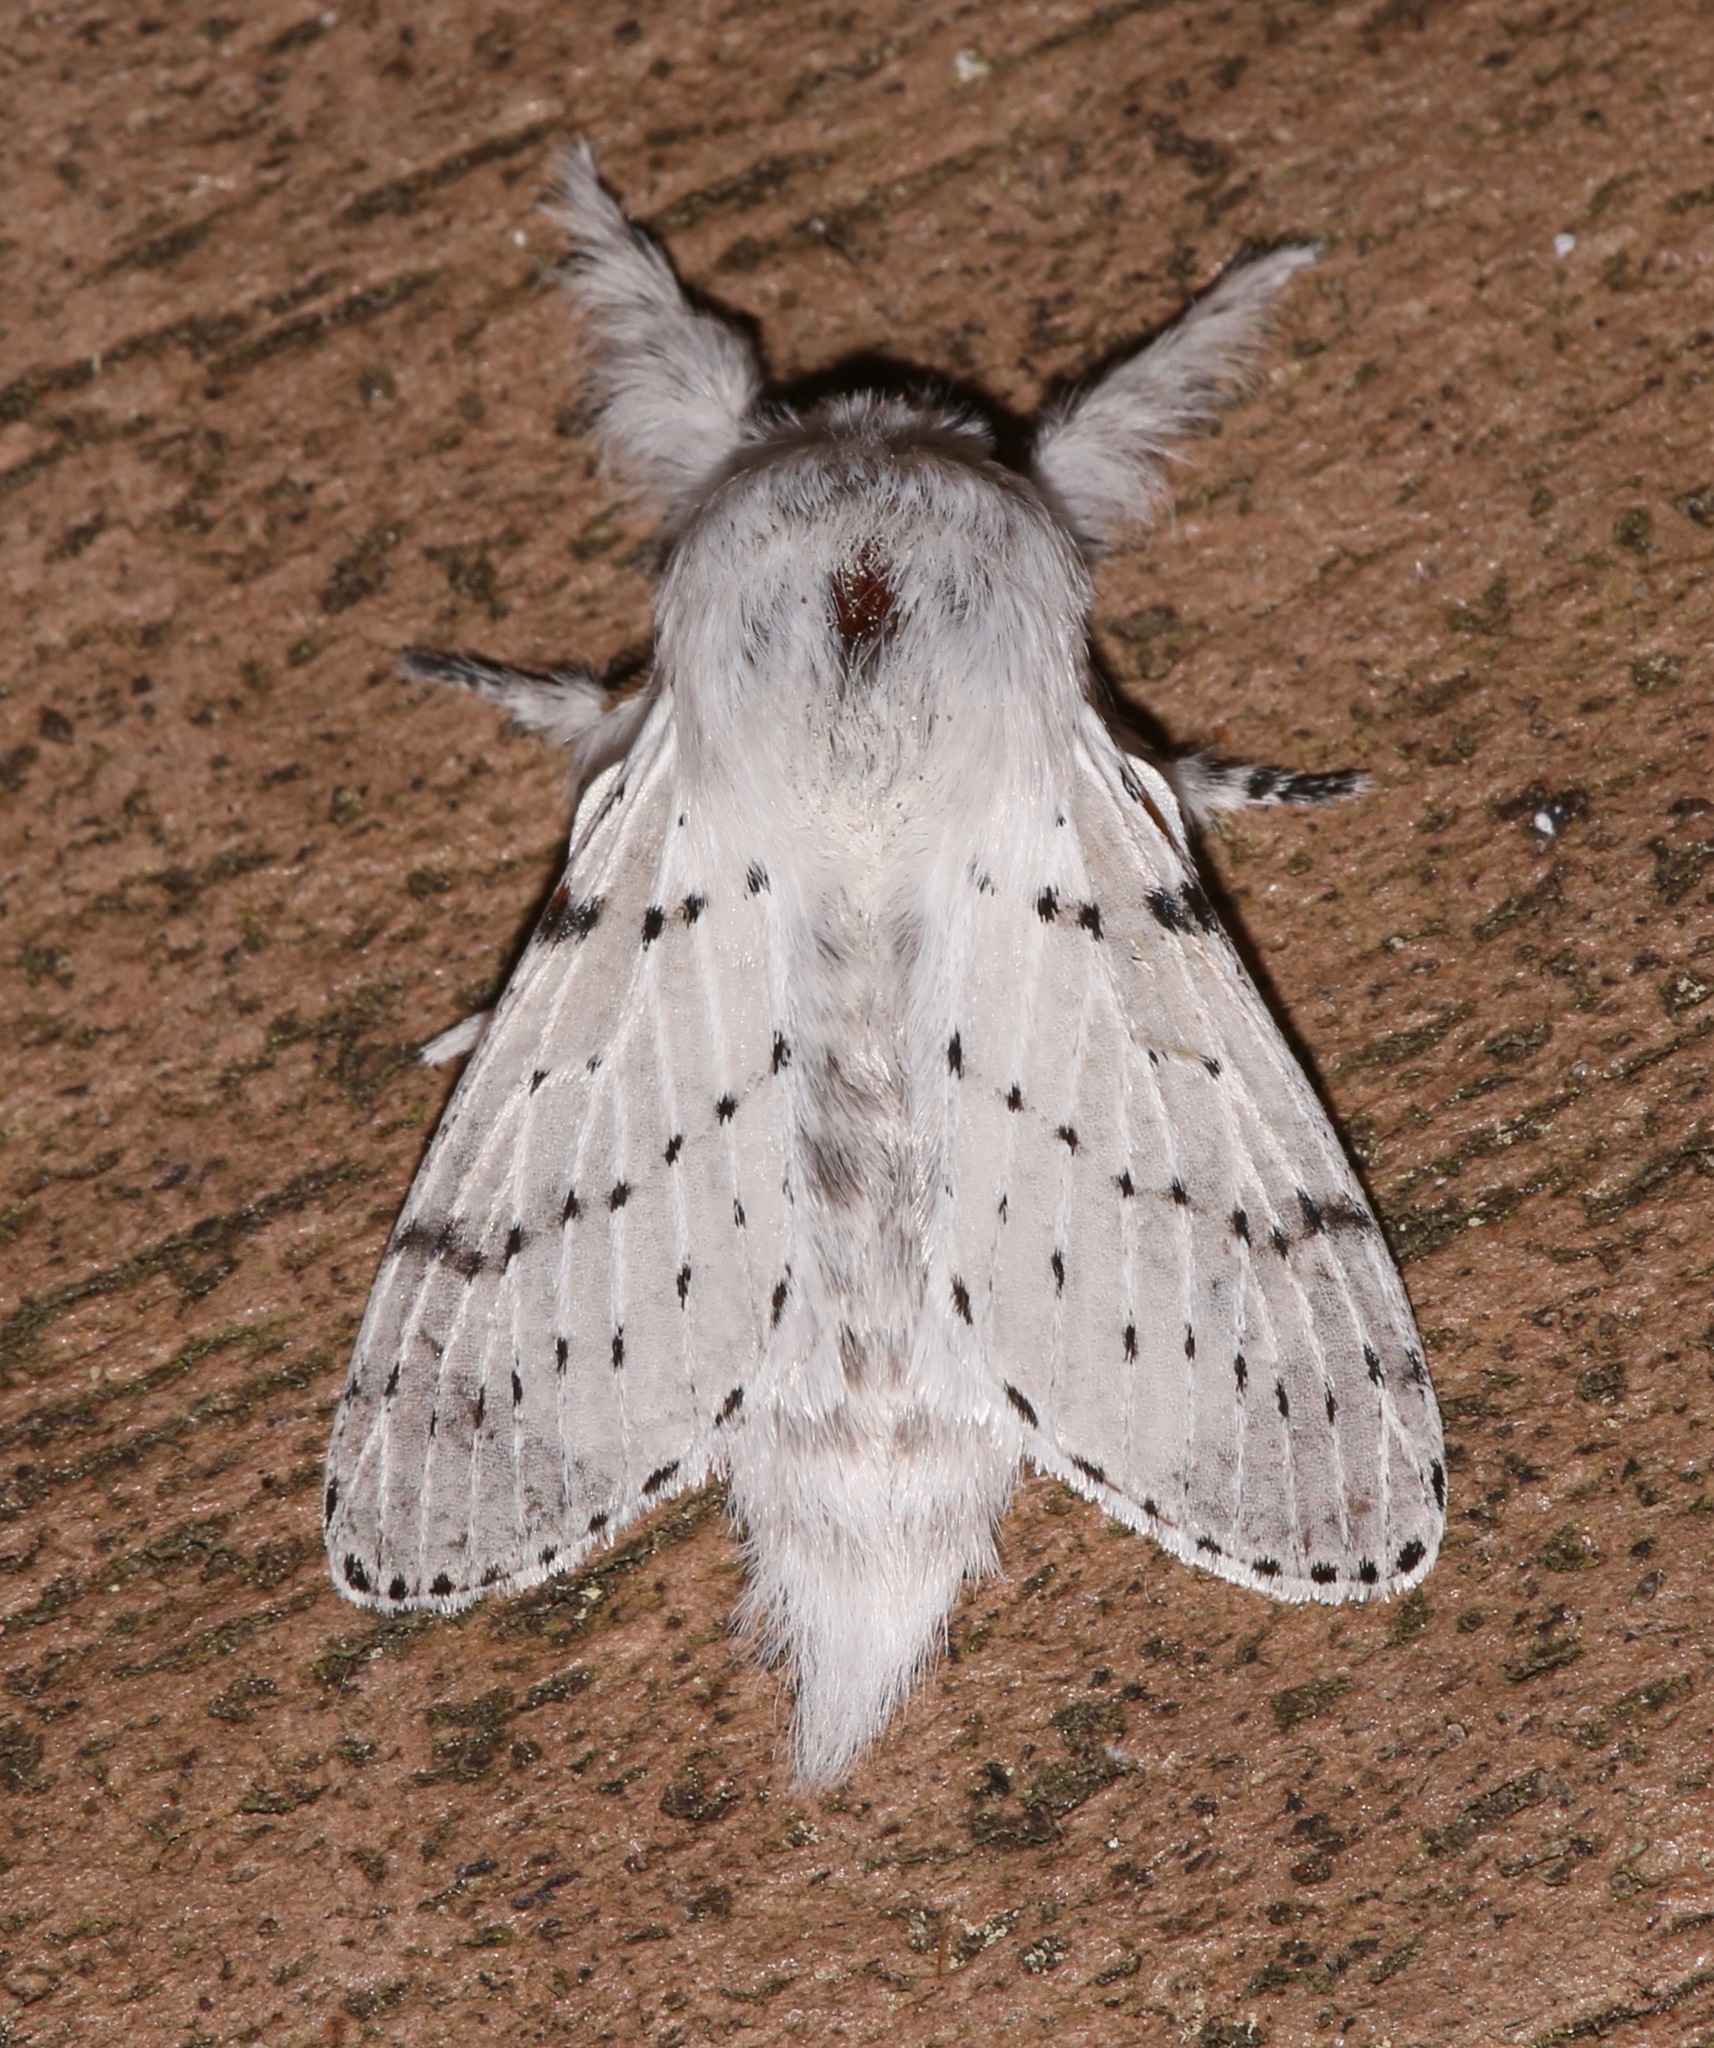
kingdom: Animalia
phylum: Arthropoda
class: Insecta
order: Lepidoptera
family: Lasiocampidae
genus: Artace
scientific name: Artace cribrarius
